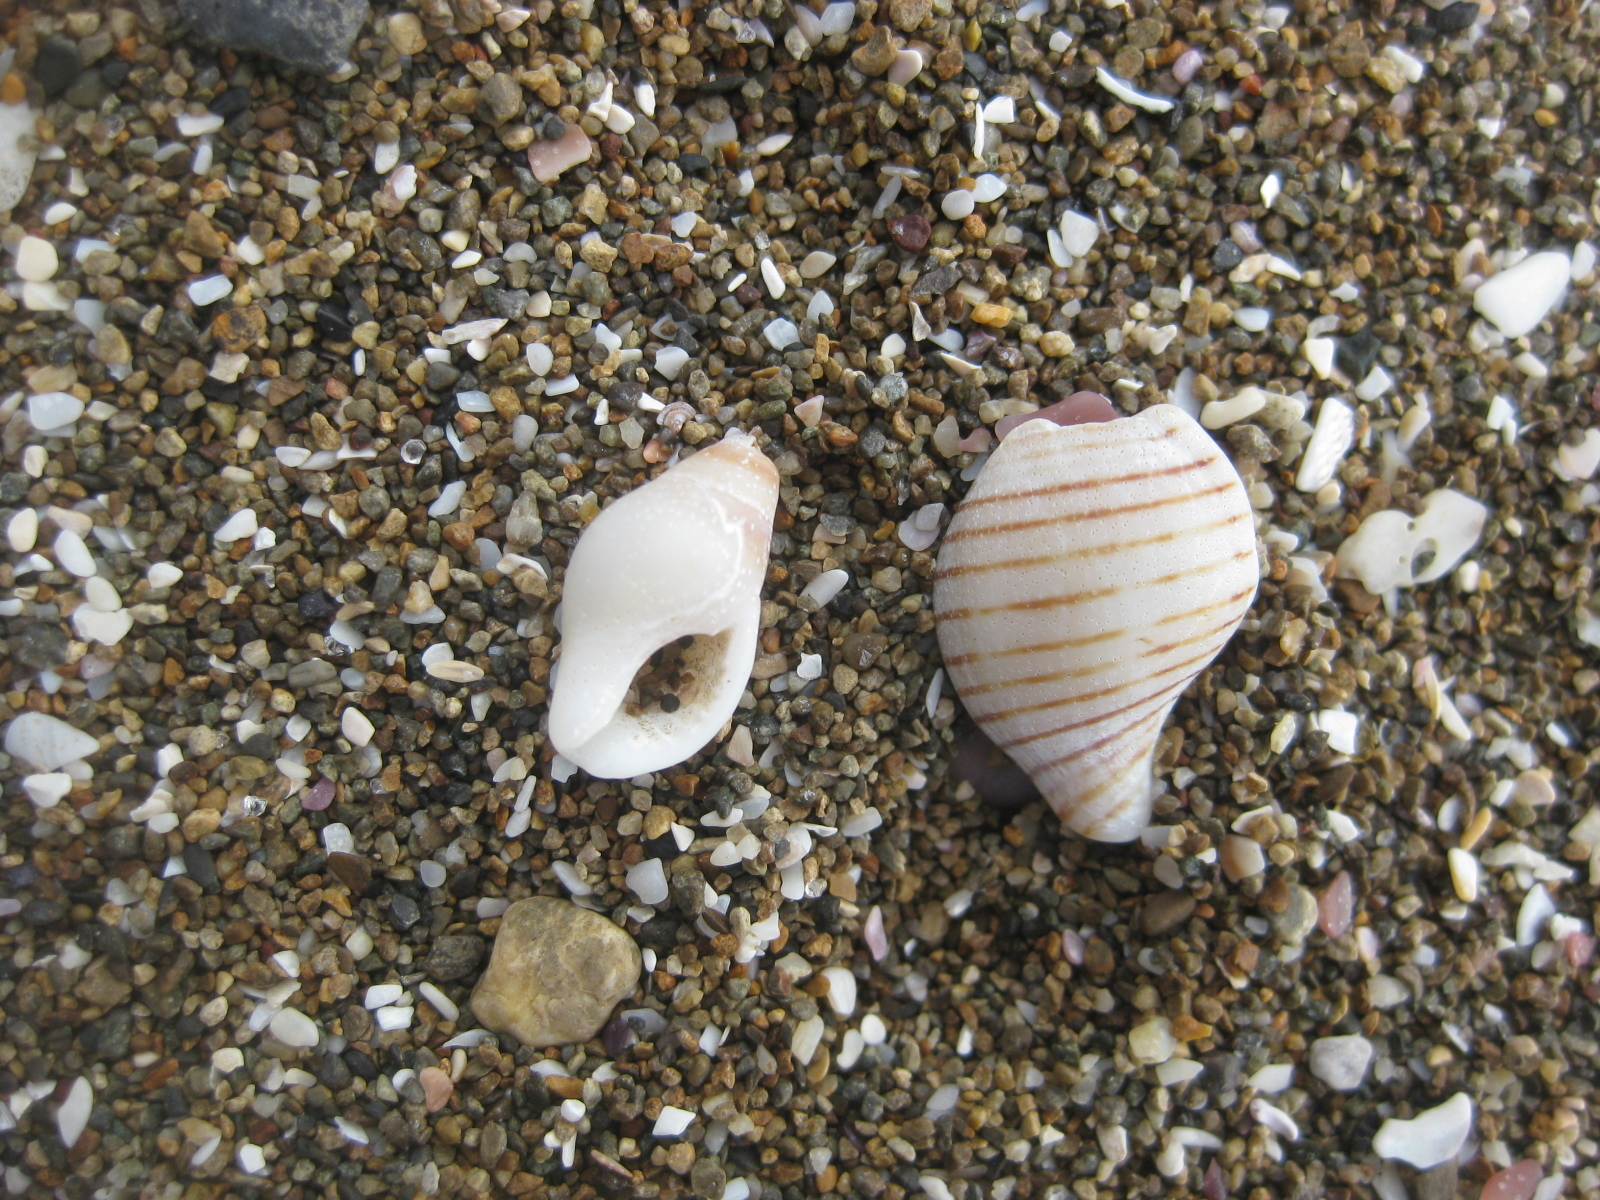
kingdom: Animalia
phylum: Mollusca
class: Gastropoda
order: Neogastropoda
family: Tudiclidae
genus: Buccinulum
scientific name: Buccinulum linea
